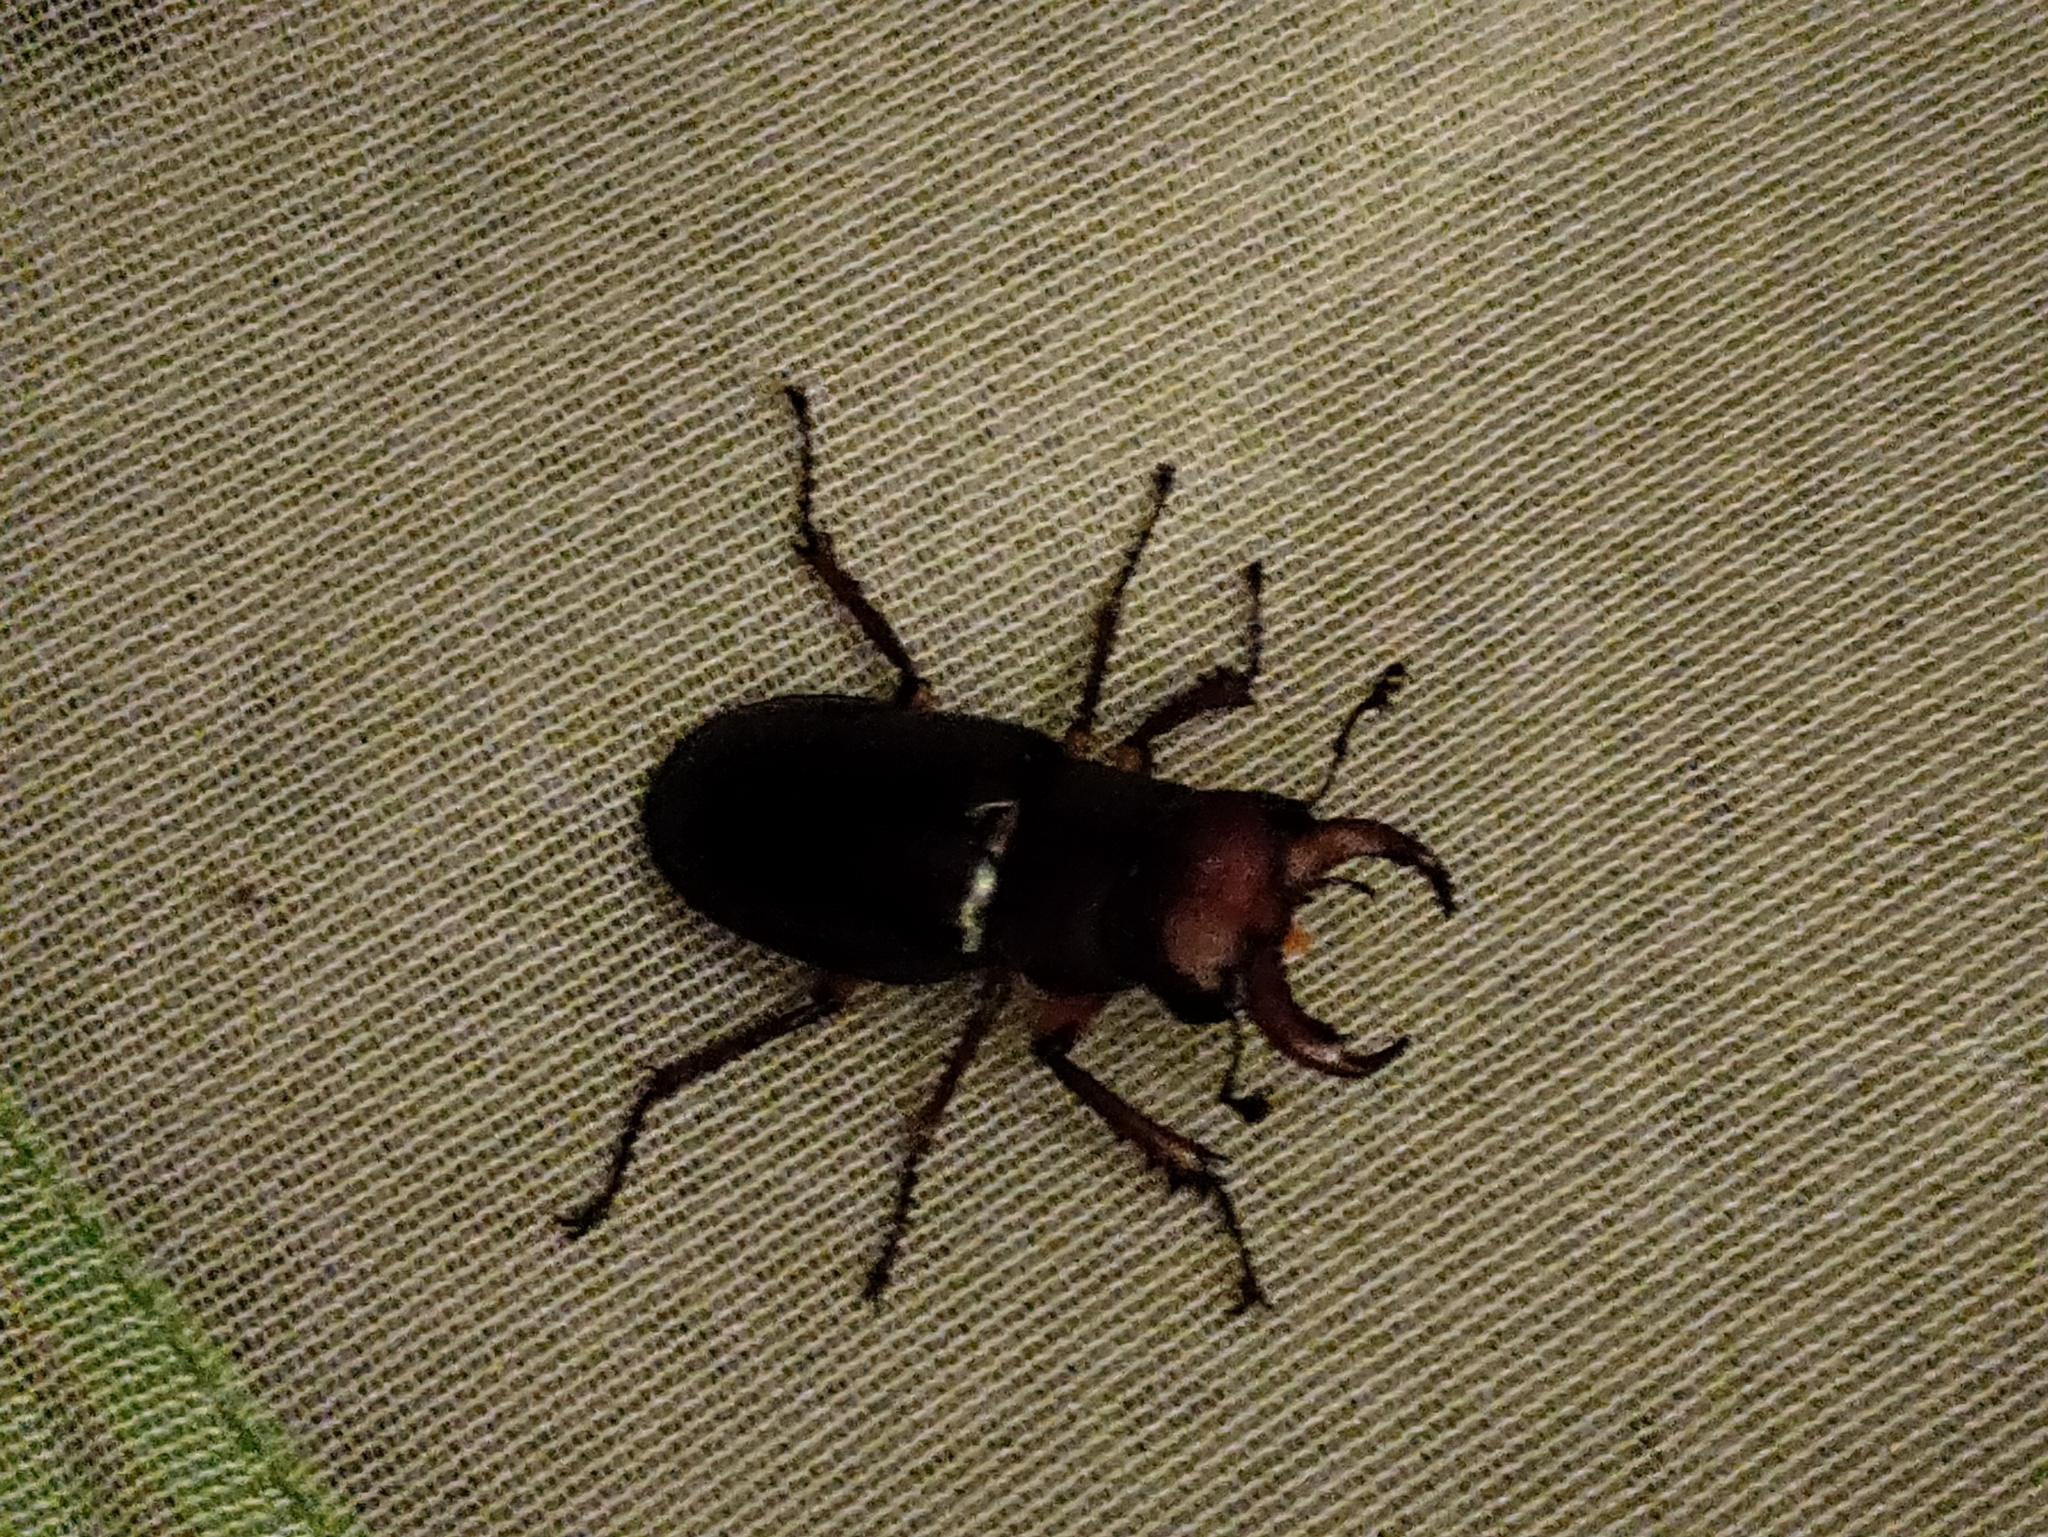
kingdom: Animalia
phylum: Arthropoda
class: Insecta
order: Coleoptera
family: Lucanidae
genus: Lucanus
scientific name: Lucanus capreolus
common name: Stag beetle
